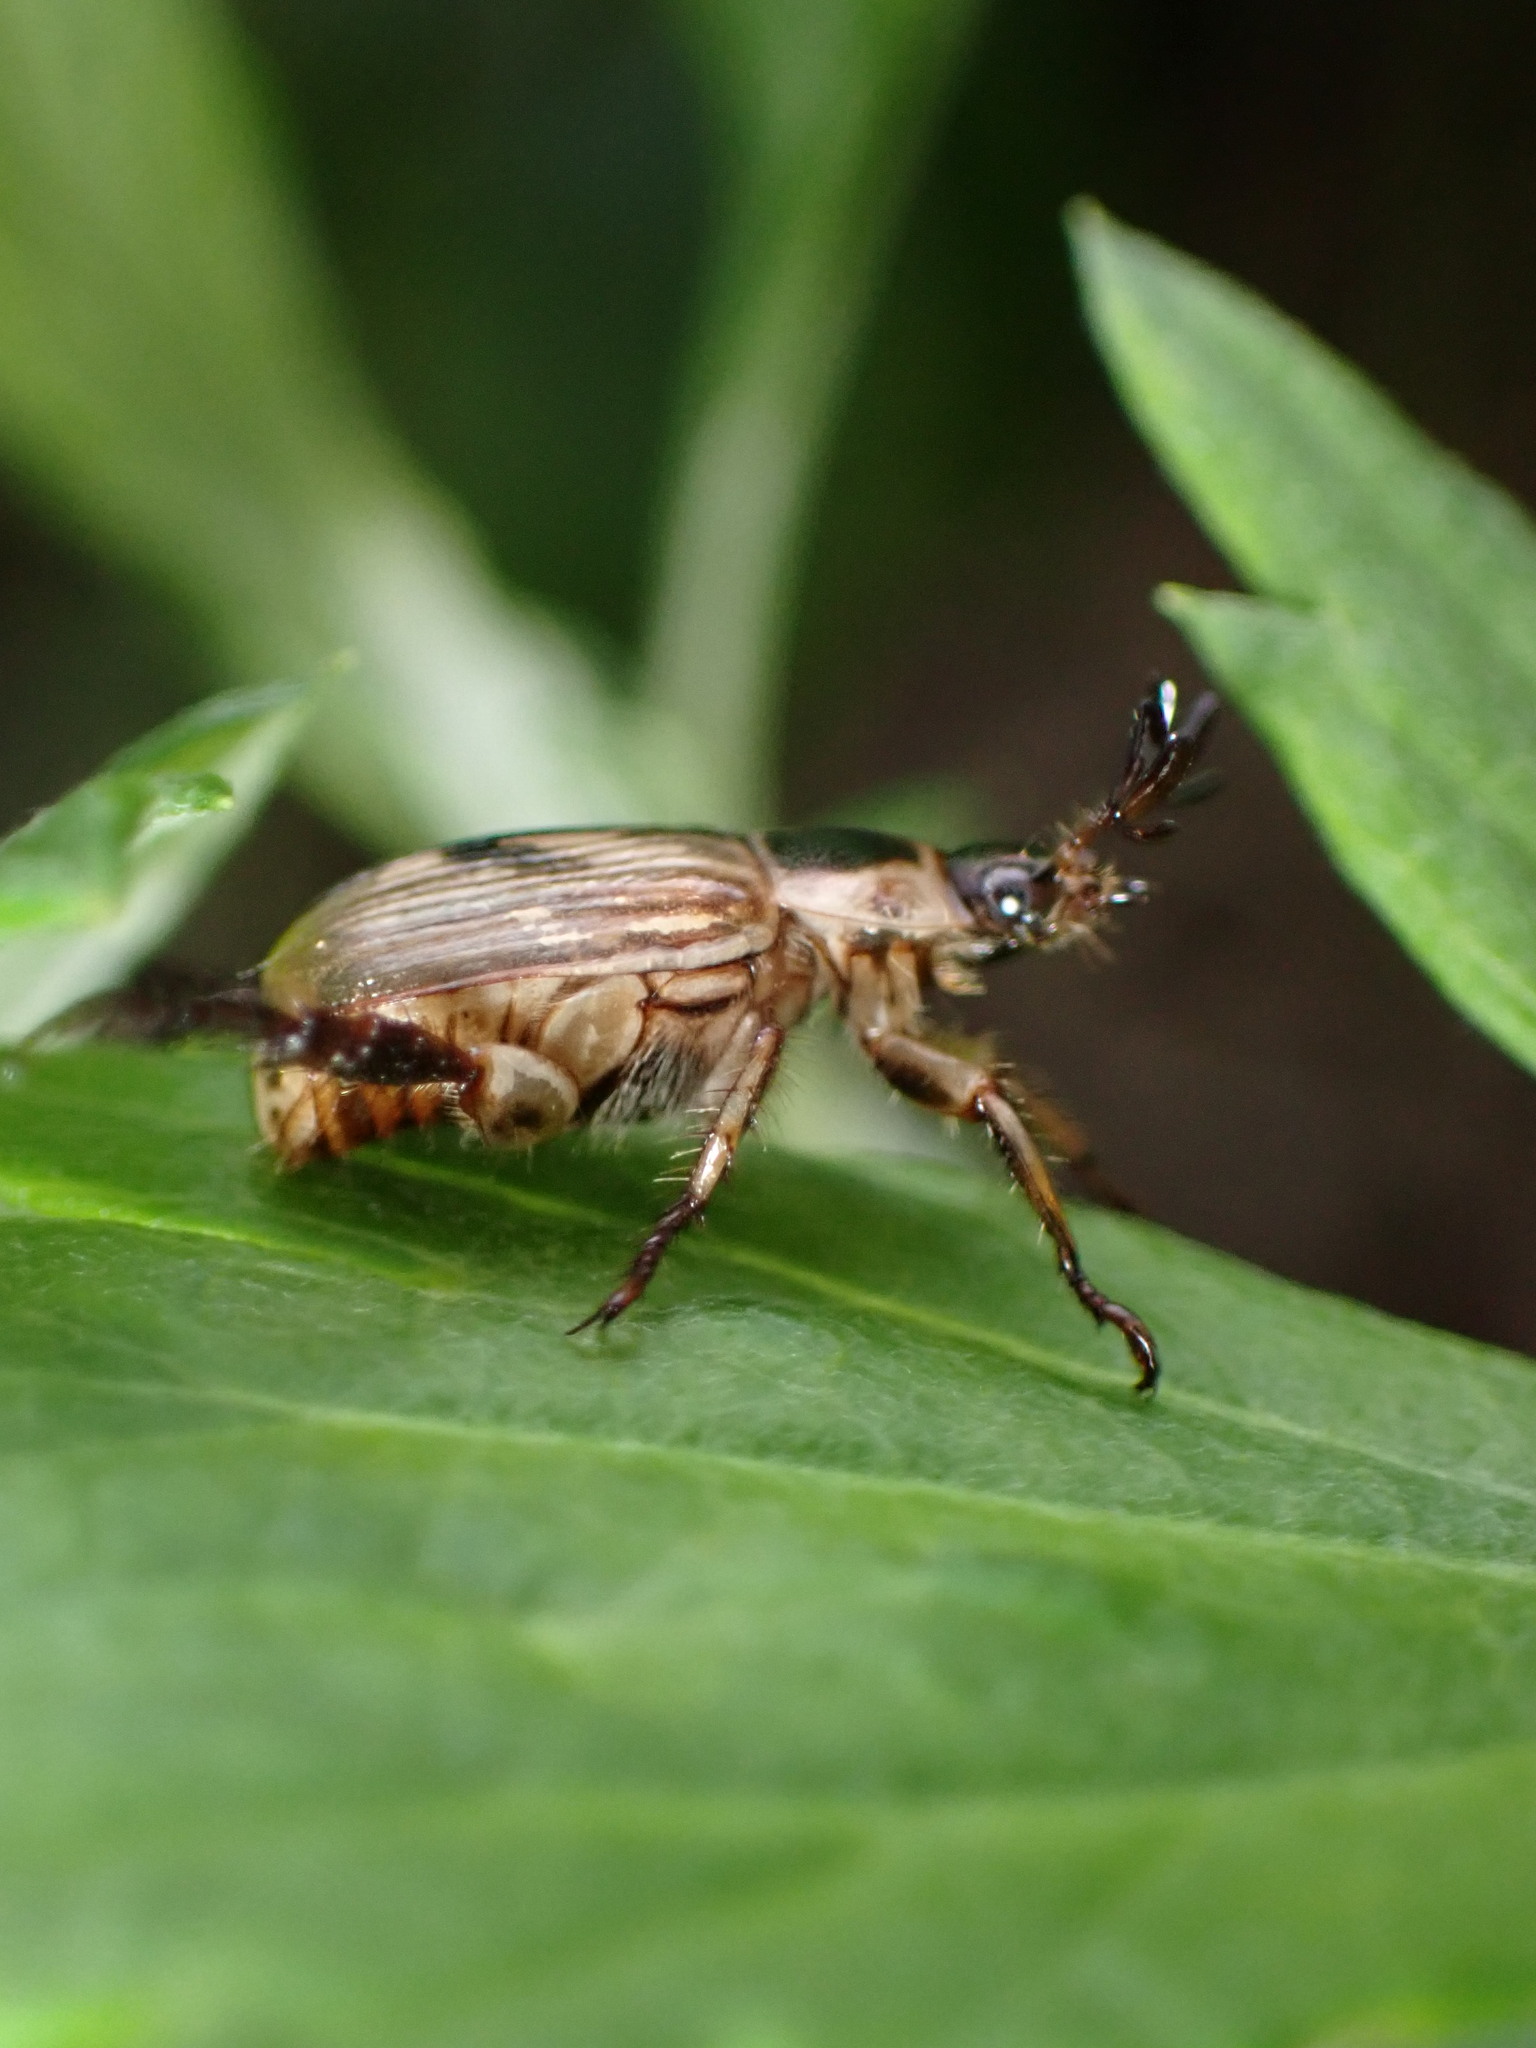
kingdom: Animalia
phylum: Arthropoda
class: Insecta
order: Coleoptera
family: Scarabaeidae
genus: Exomala
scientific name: Exomala orientalis
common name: Oriental beetle
